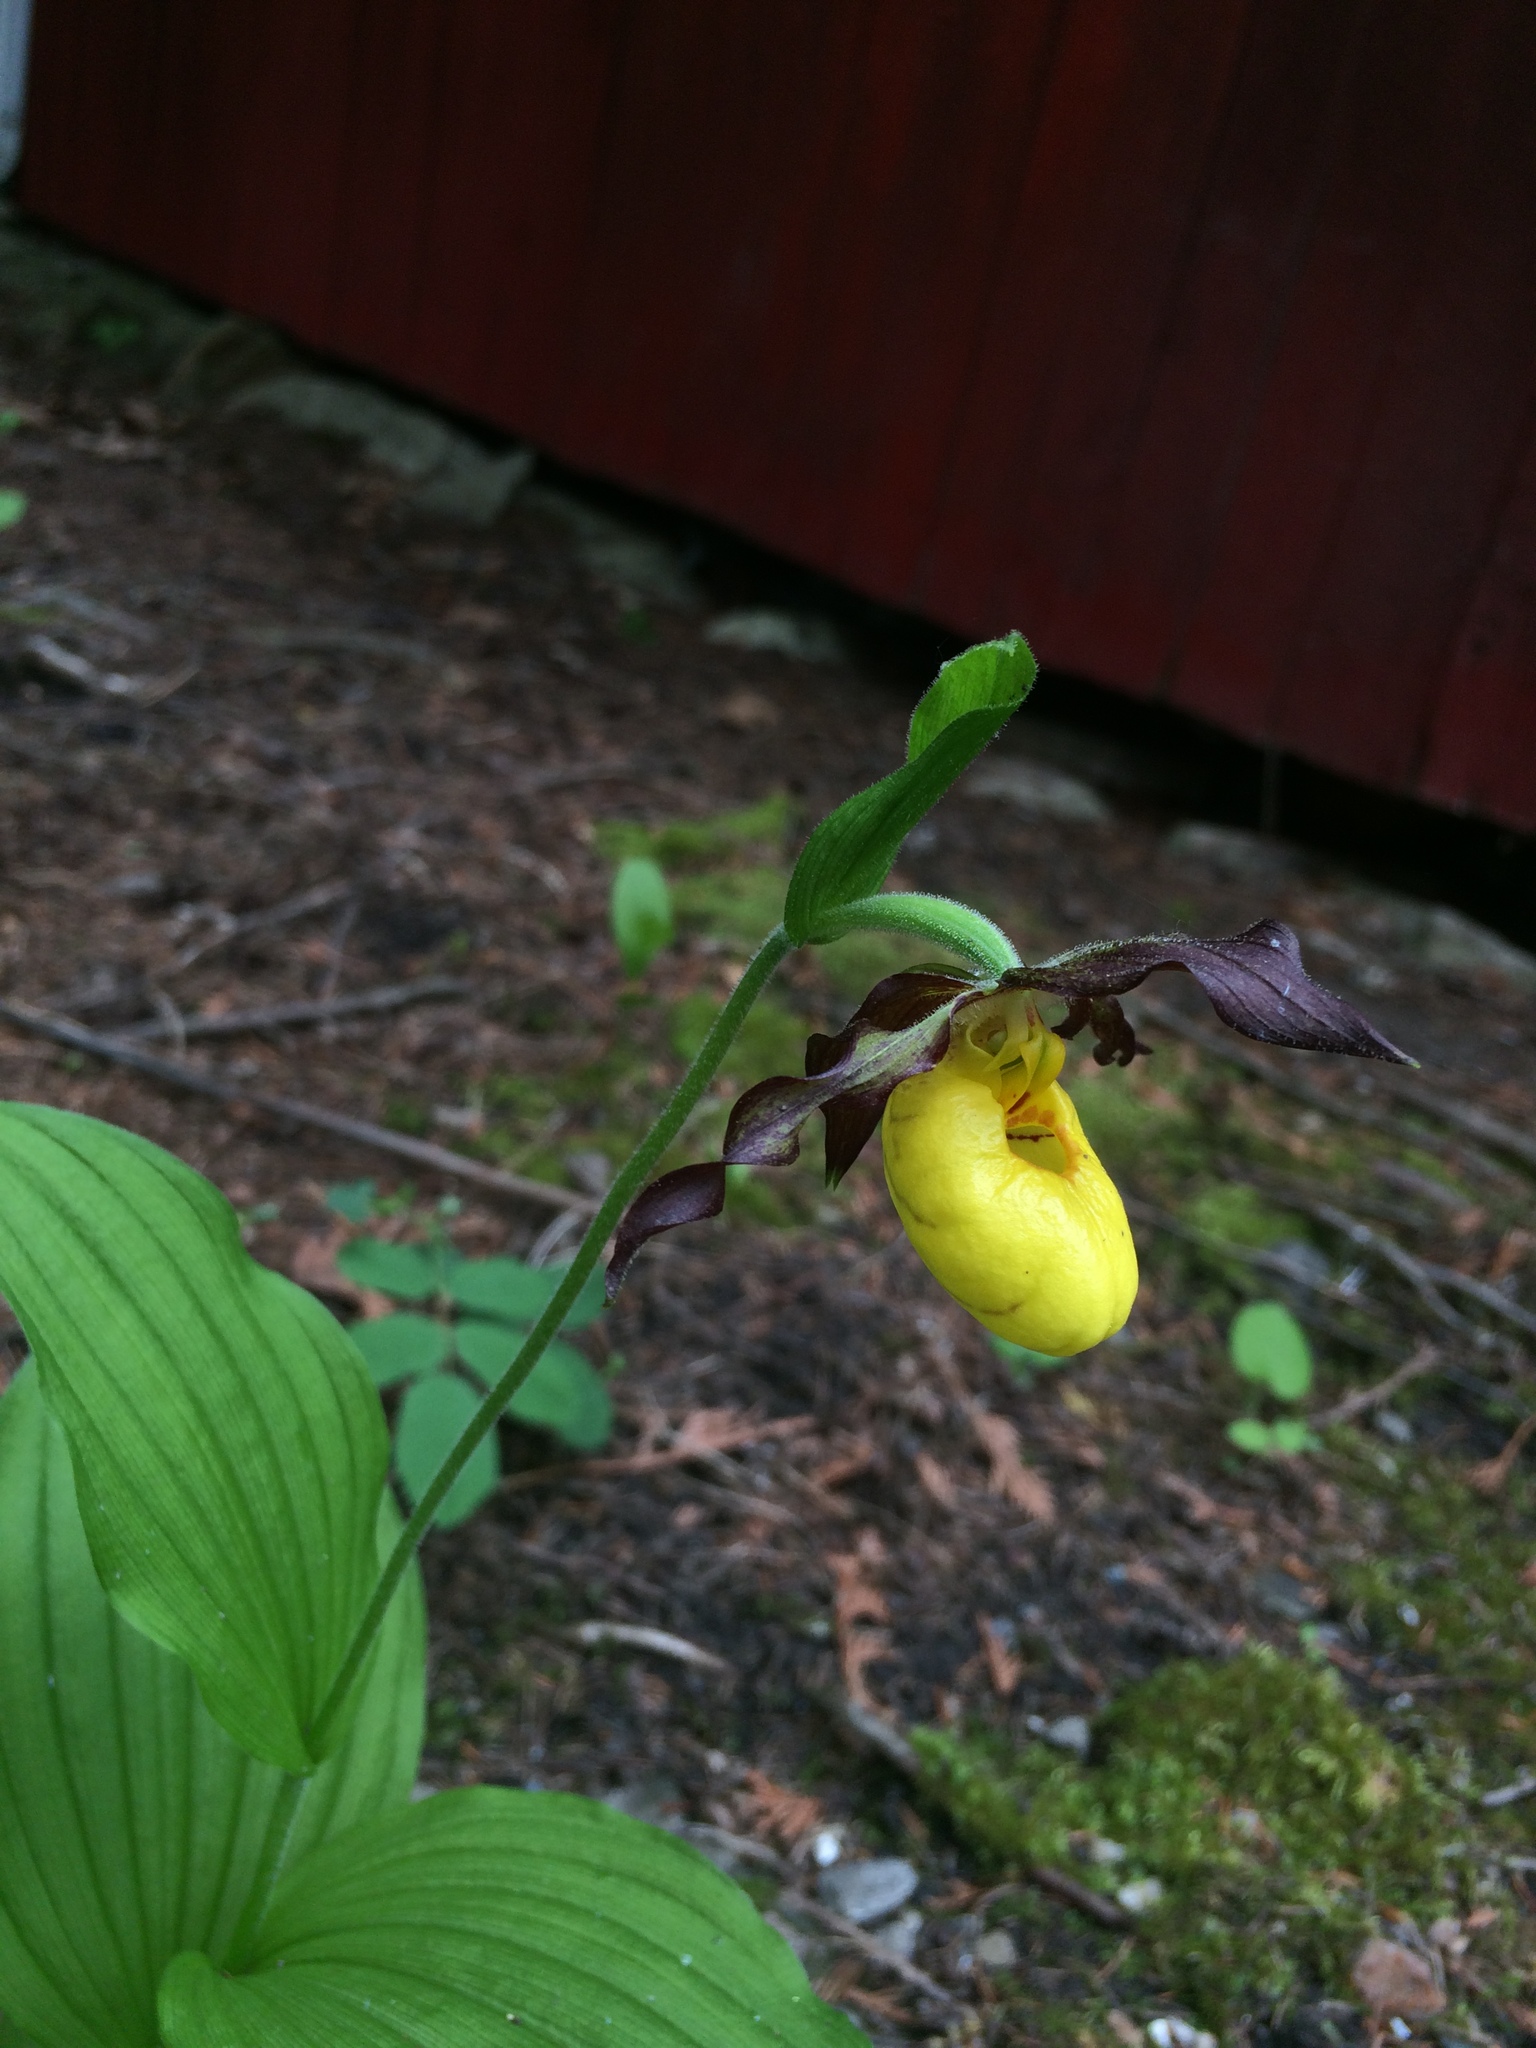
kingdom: Plantae
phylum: Tracheophyta
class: Liliopsida
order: Asparagales
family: Orchidaceae
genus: Cypripedium
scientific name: Cypripedium parviflorum
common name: American yellow lady's-slipper
